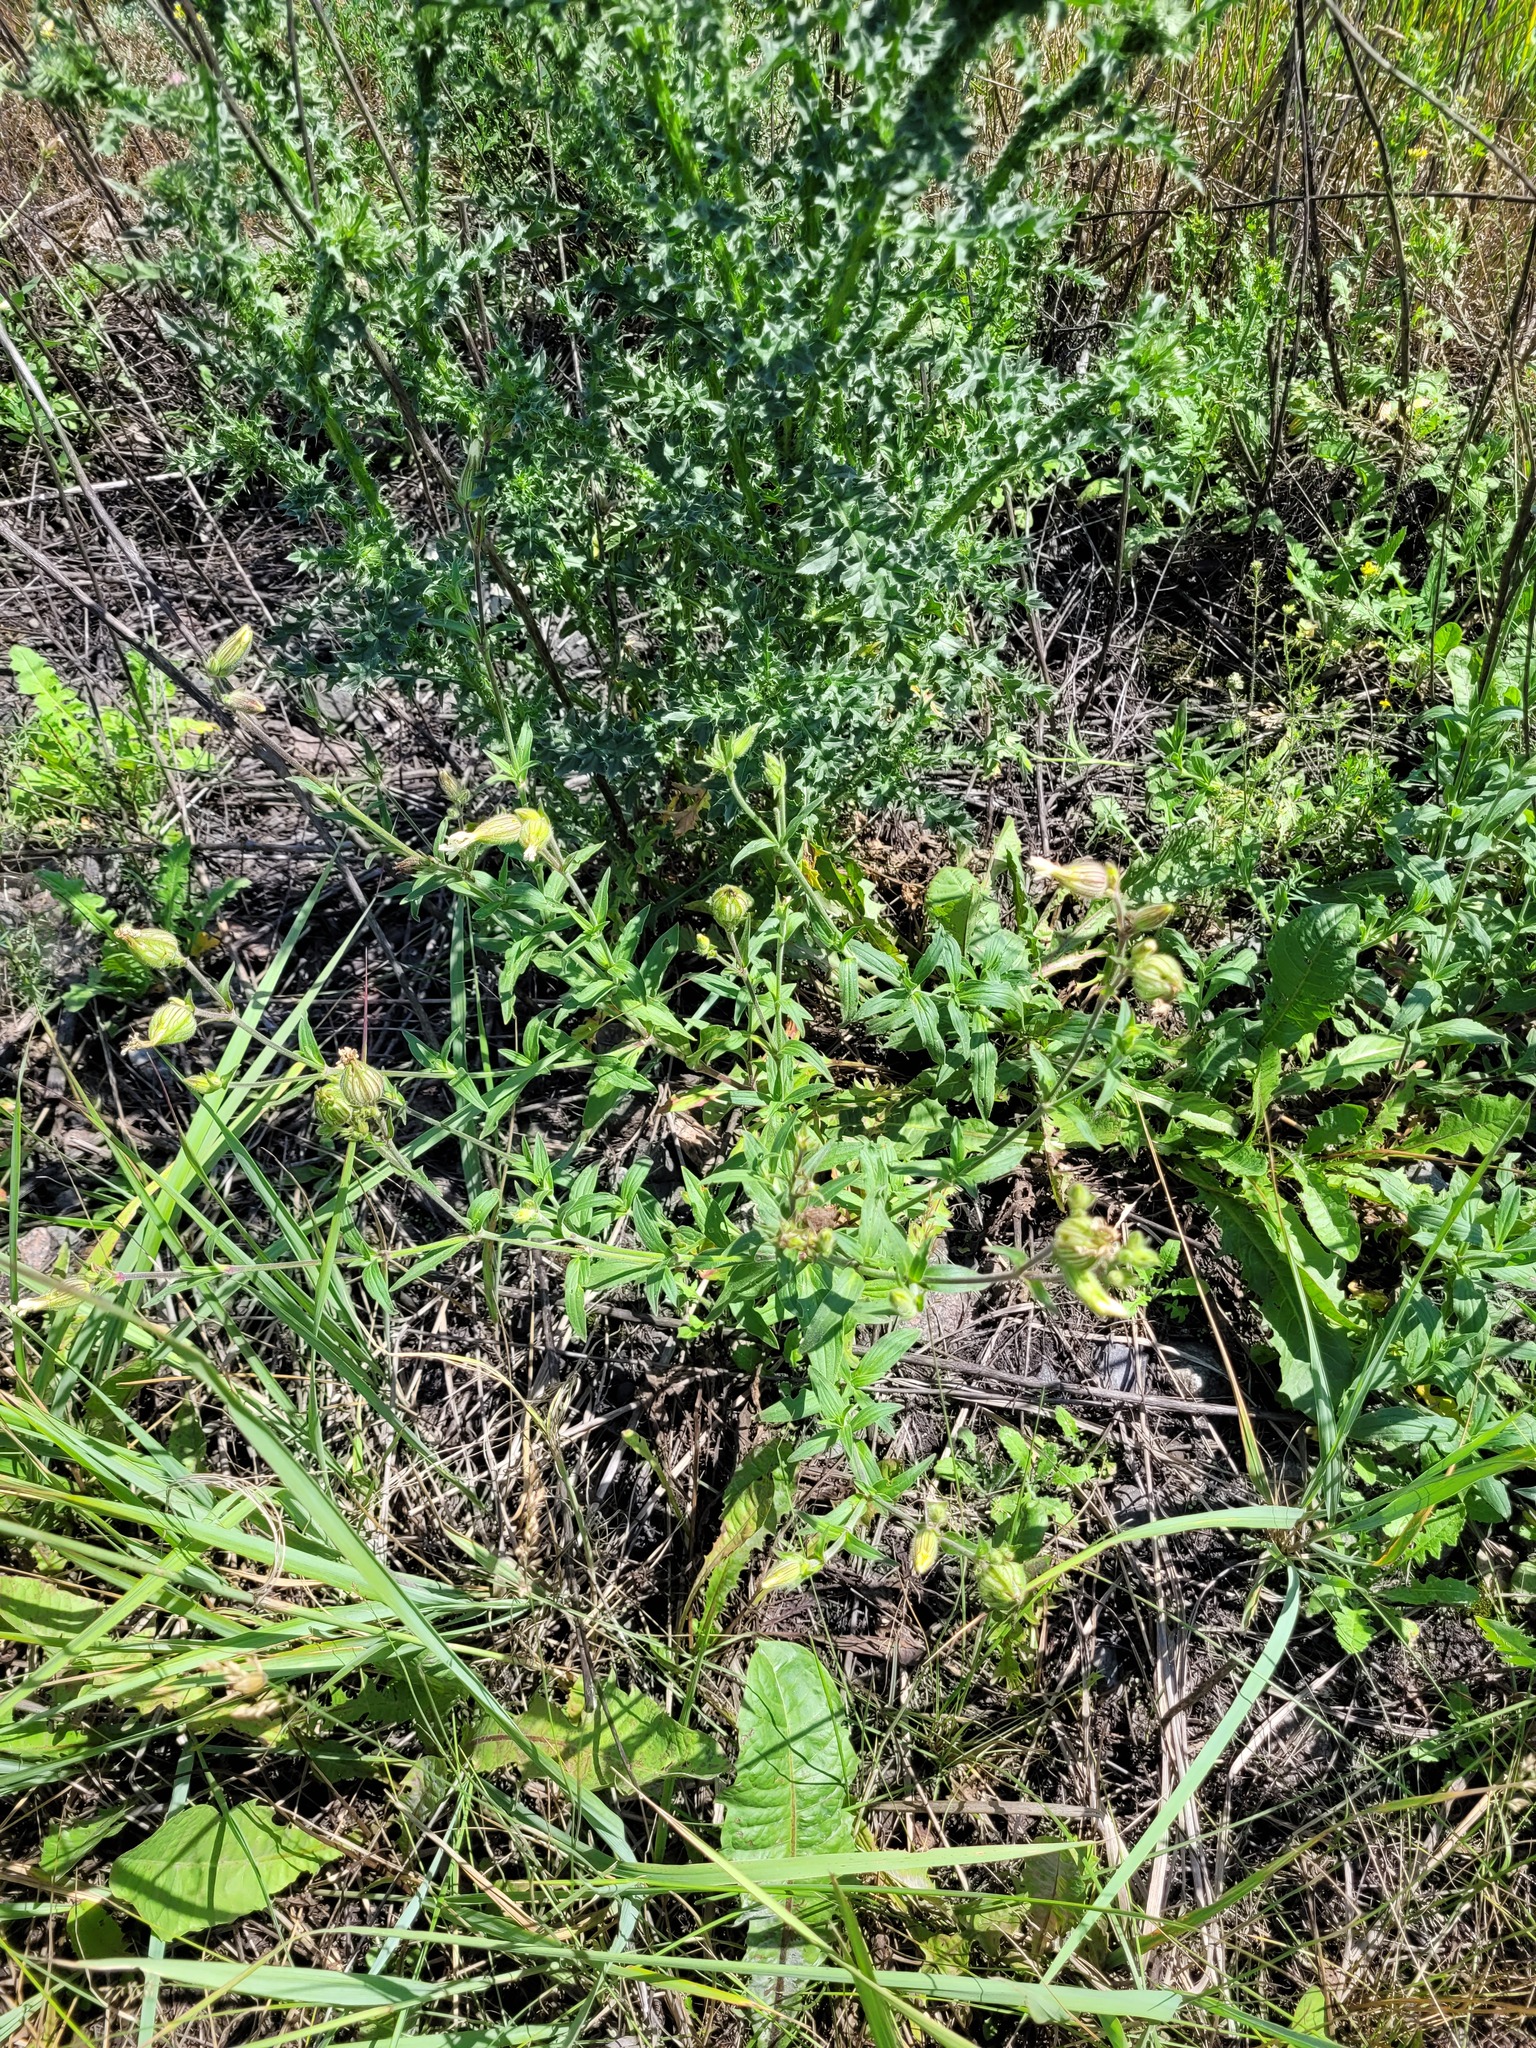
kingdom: Plantae
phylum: Tracheophyta
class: Magnoliopsida
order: Caryophyllales
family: Caryophyllaceae
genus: Silene
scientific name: Silene latifolia
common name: White campion
